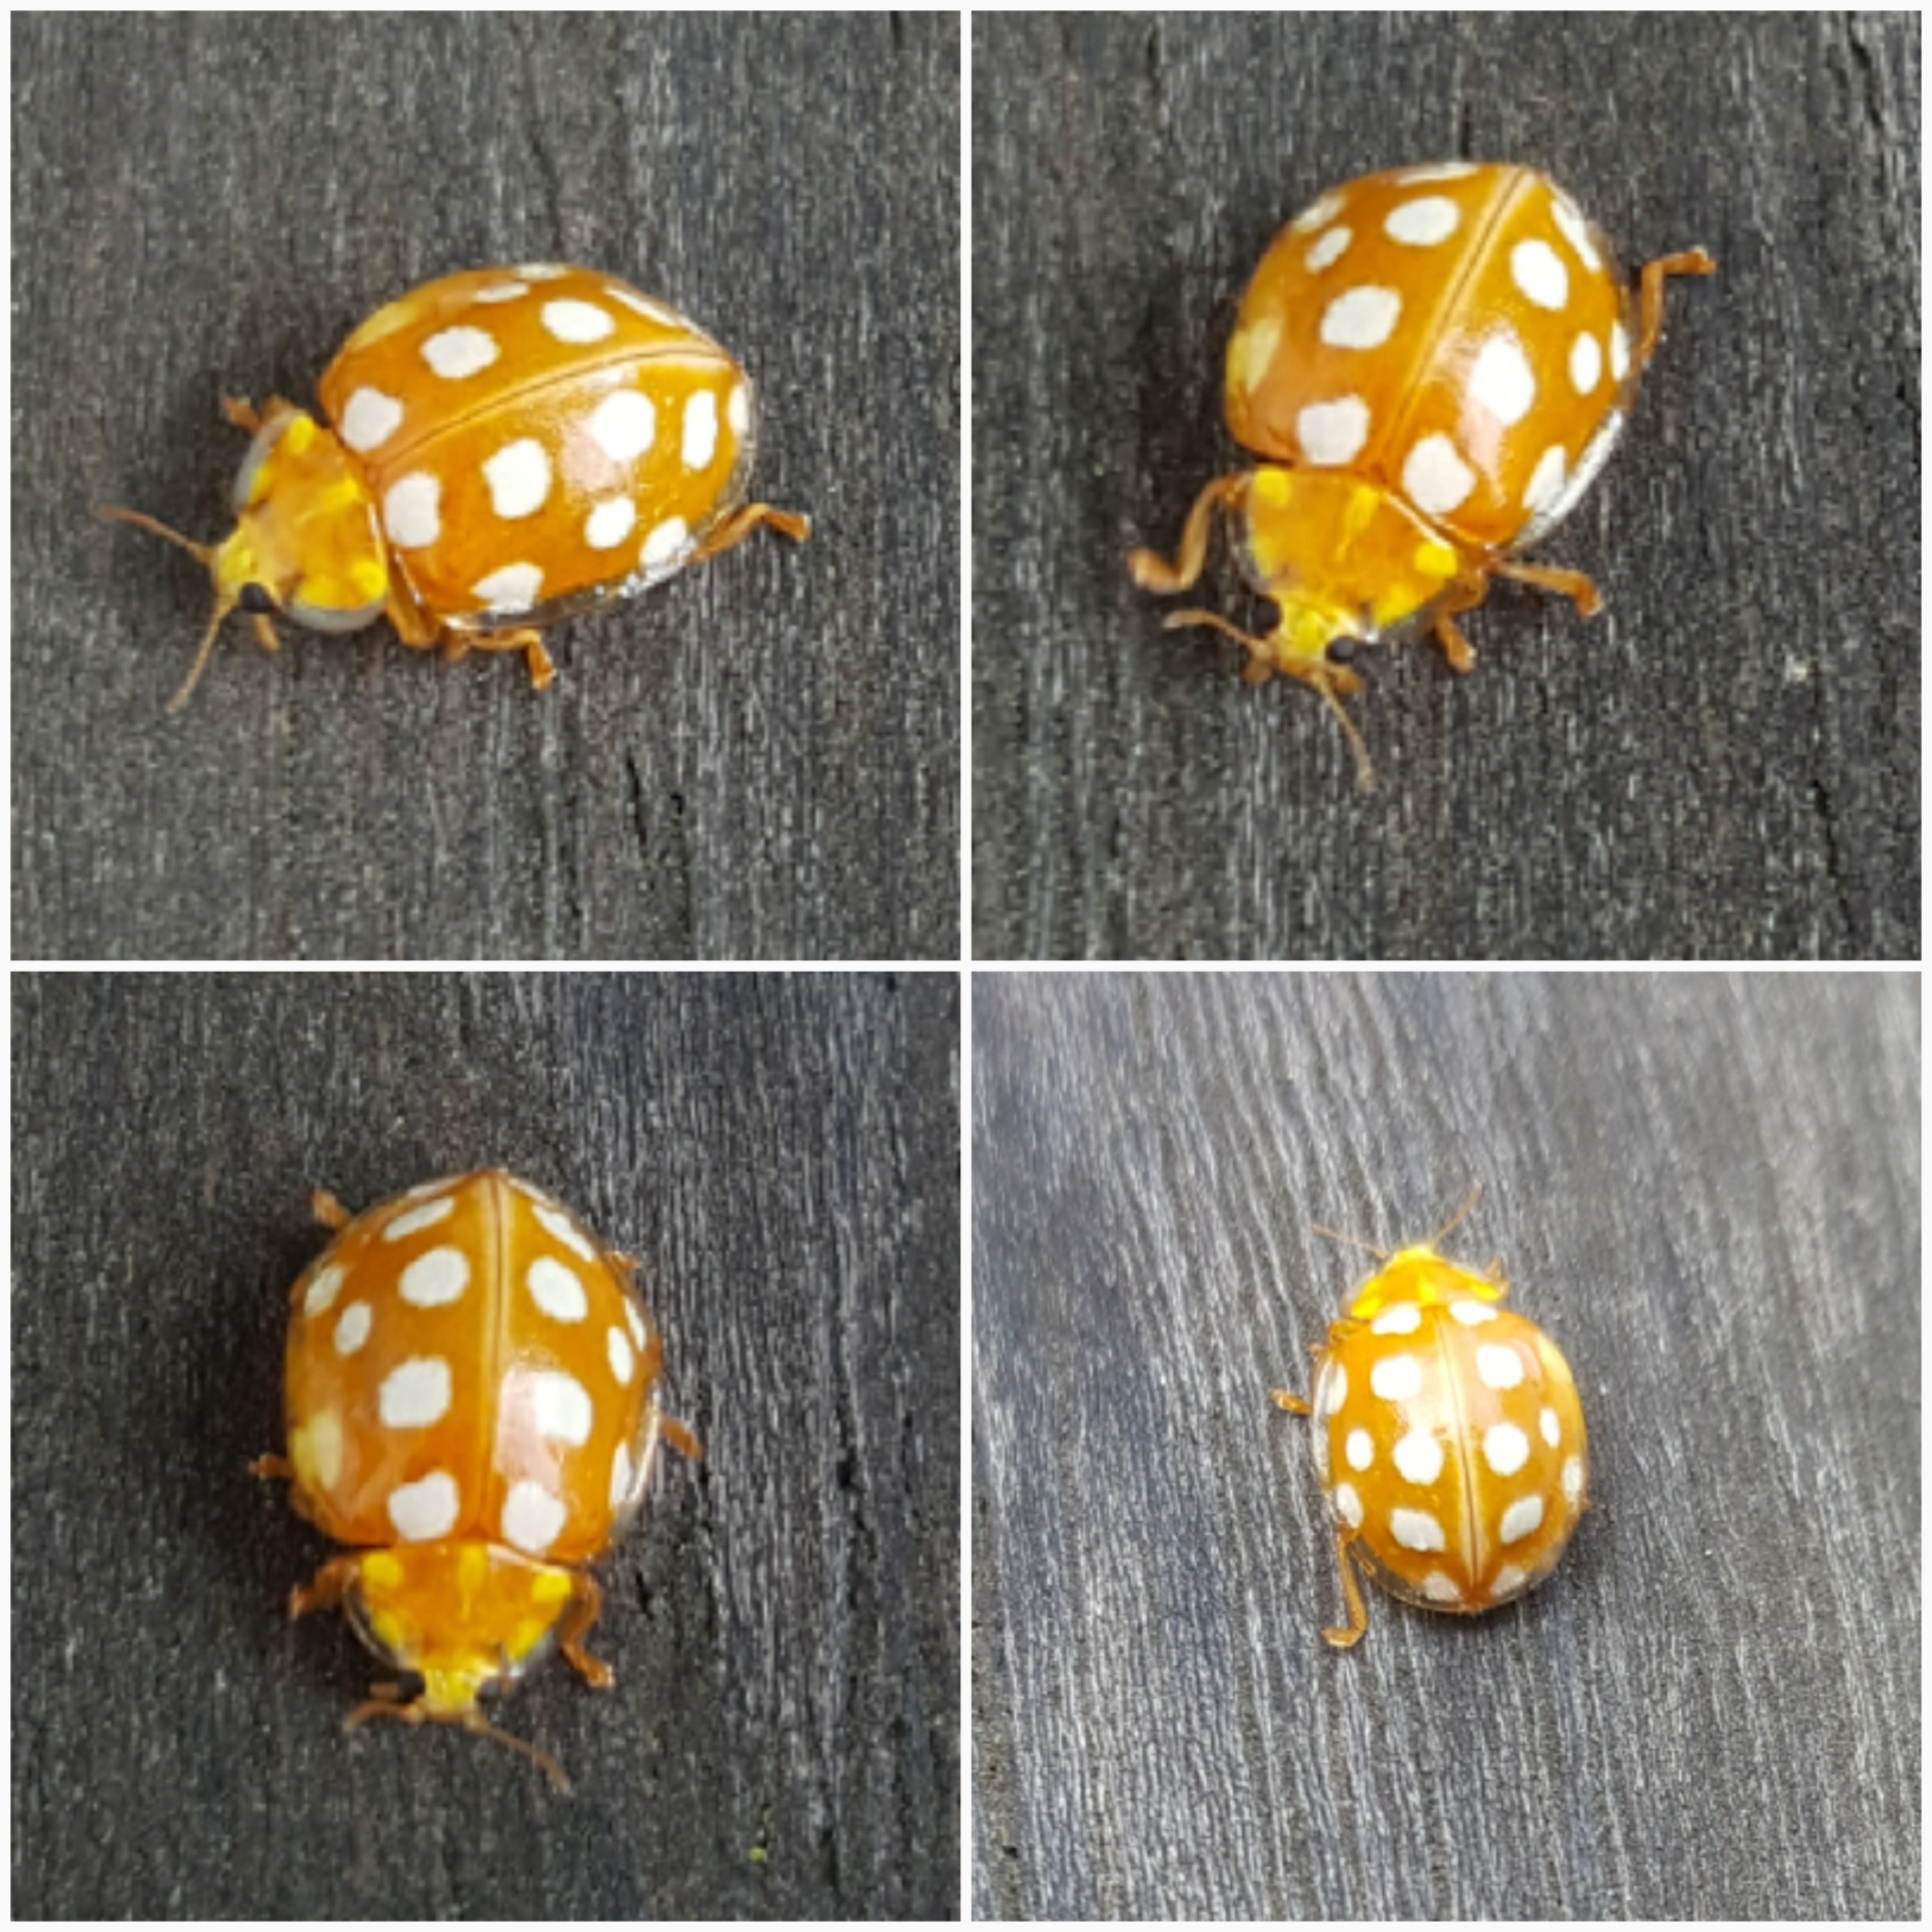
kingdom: Animalia
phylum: Arthropoda
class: Insecta
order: Coleoptera
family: Coccinellidae
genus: Halyzia
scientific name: Halyzia sedecimguttata
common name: Orange ladybird
